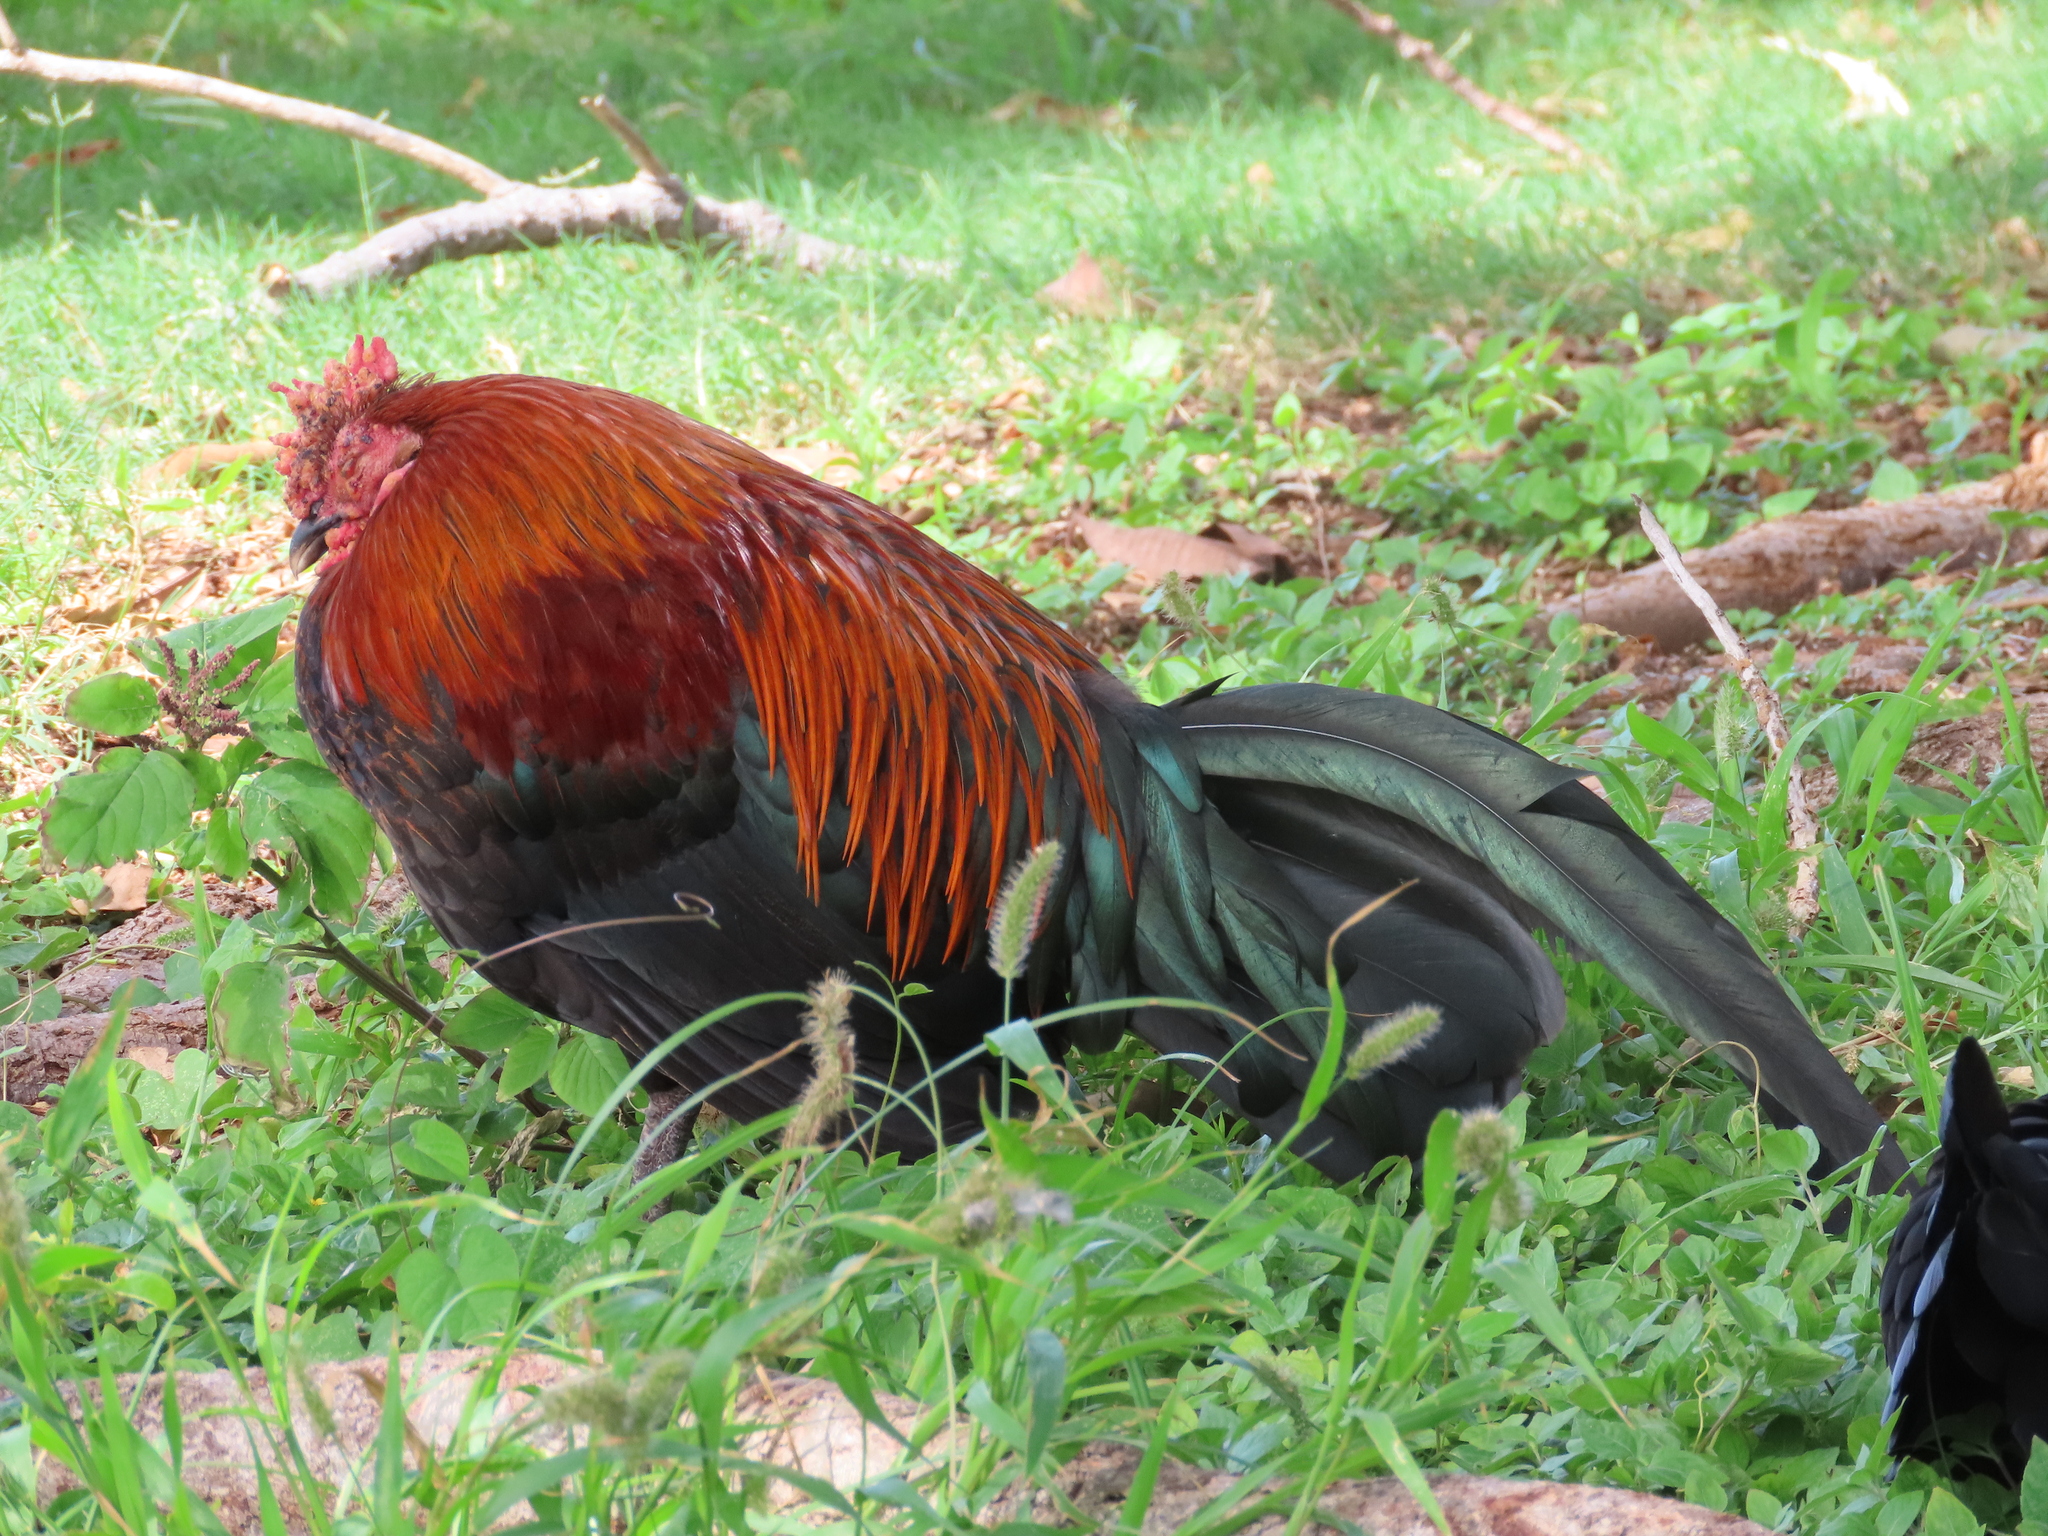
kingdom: Animalia
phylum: Chordata
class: Aves
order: Galliformes
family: Phasianidae
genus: Gallus
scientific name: Gallus gallus
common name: Red junglefowl
